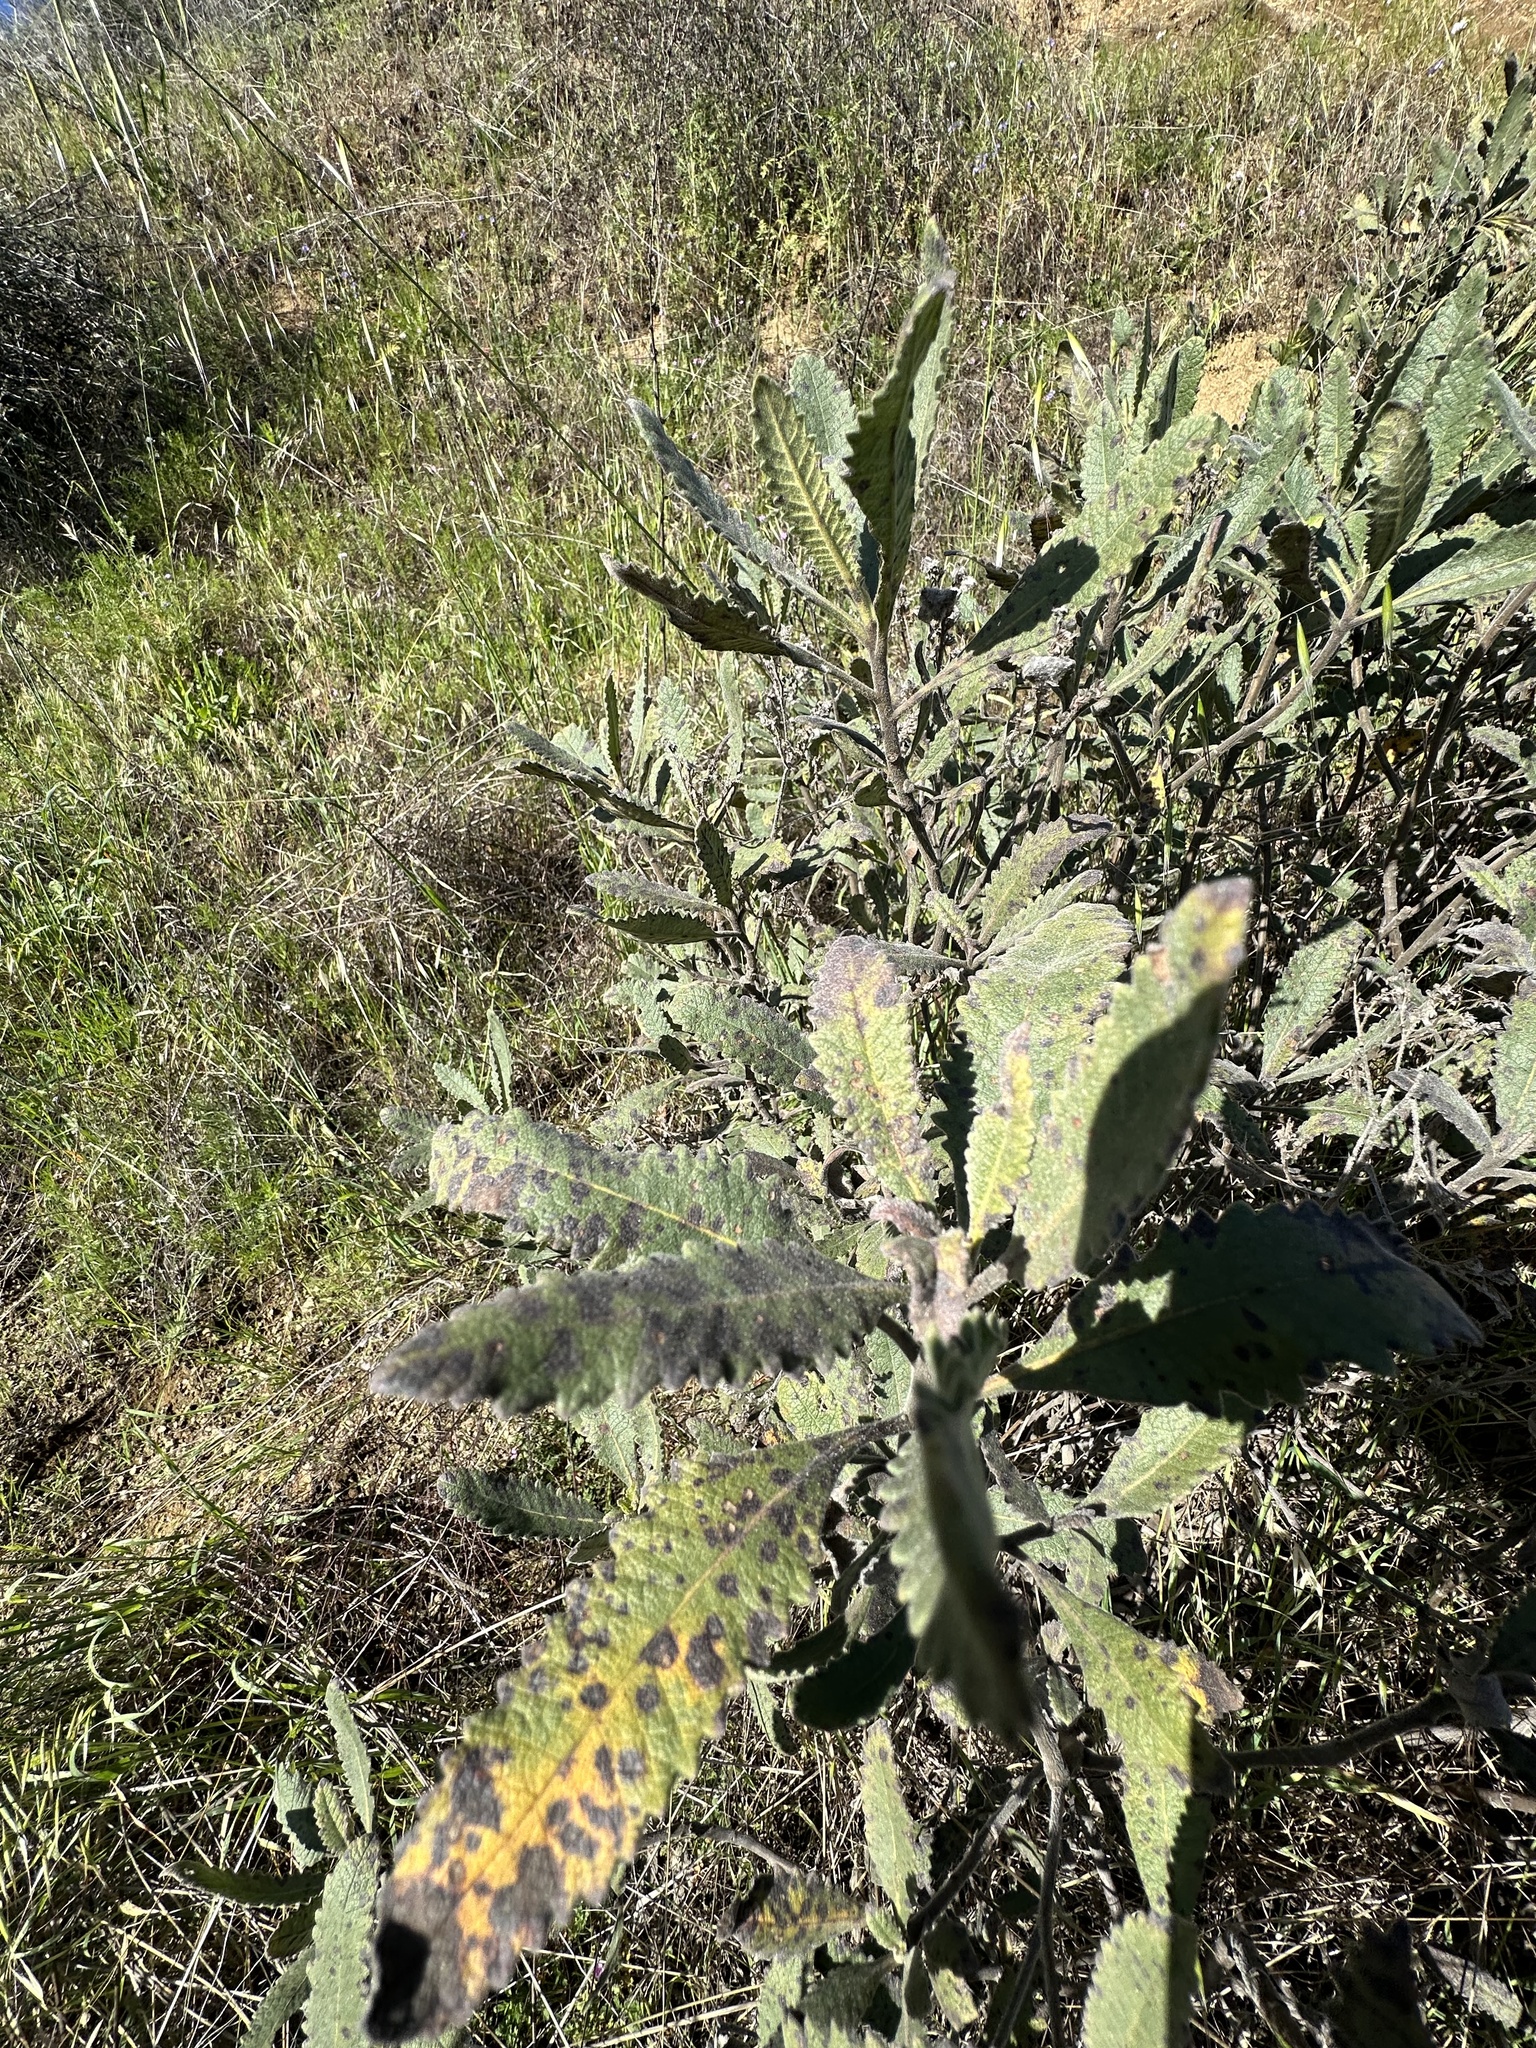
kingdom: Plantae
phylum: Tracheophyta
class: Magnoliopsida
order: Boraginales
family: Namaceae
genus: Eriodictyon
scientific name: Eriodictyon crassifolium
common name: Thick-leaf yerba-santa
